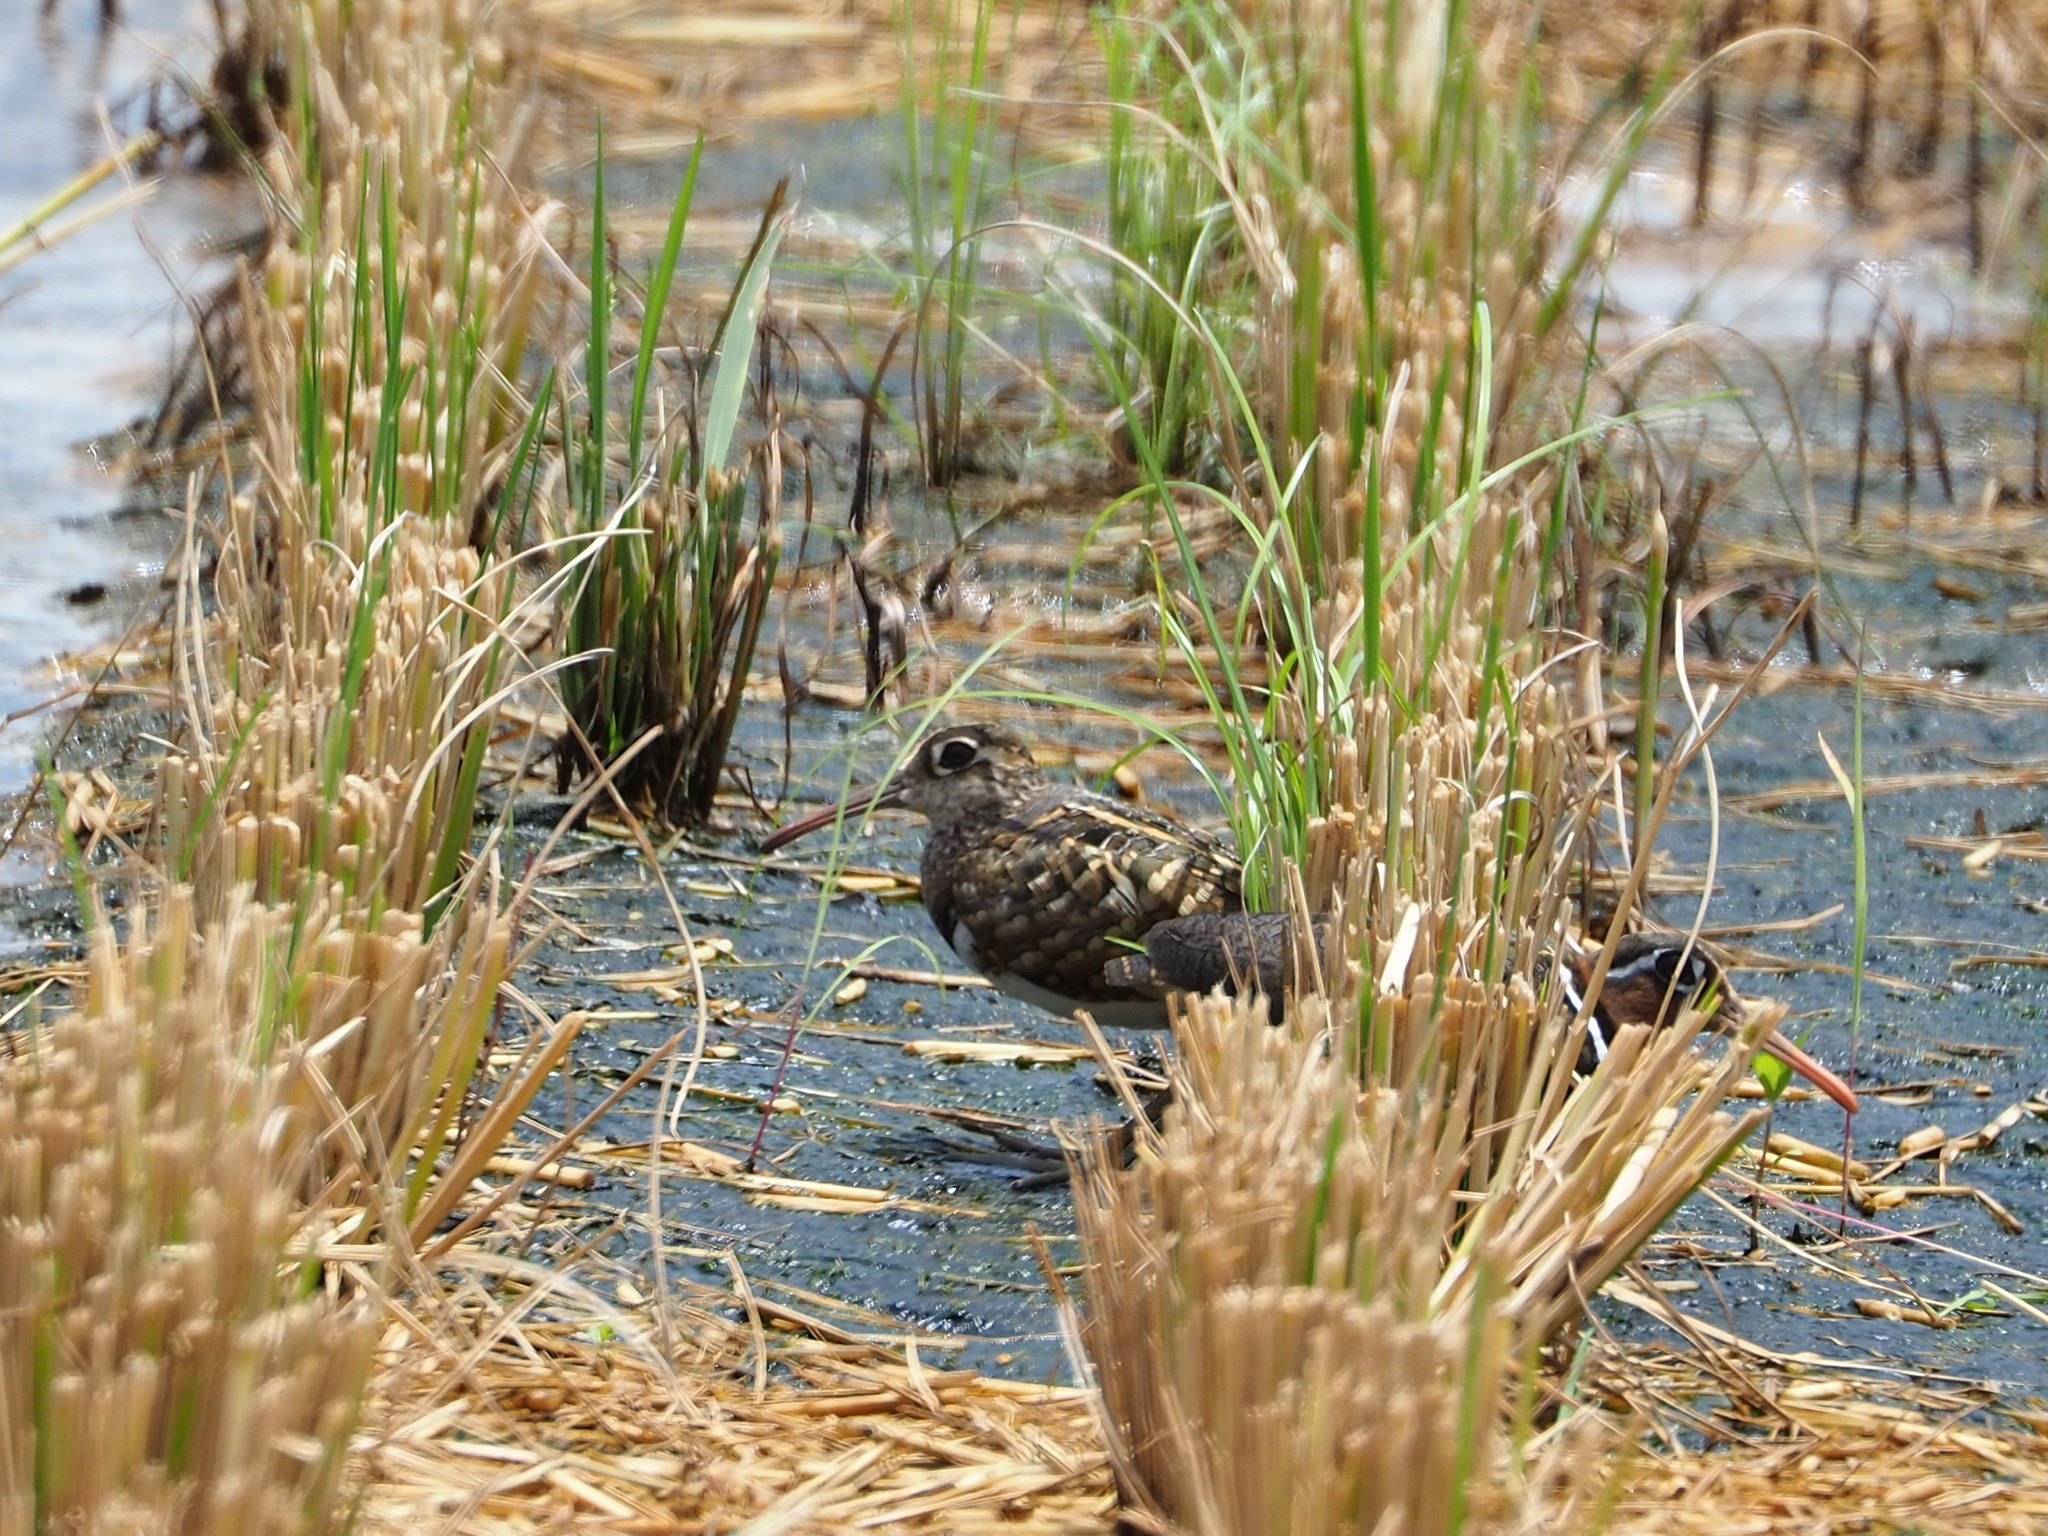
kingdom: Animalia
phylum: Chordata
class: Aves
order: Charadriiformes
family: Rostratulidae
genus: Rostratula
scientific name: Rostratula benghalensis
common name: Greater painted-snipe
